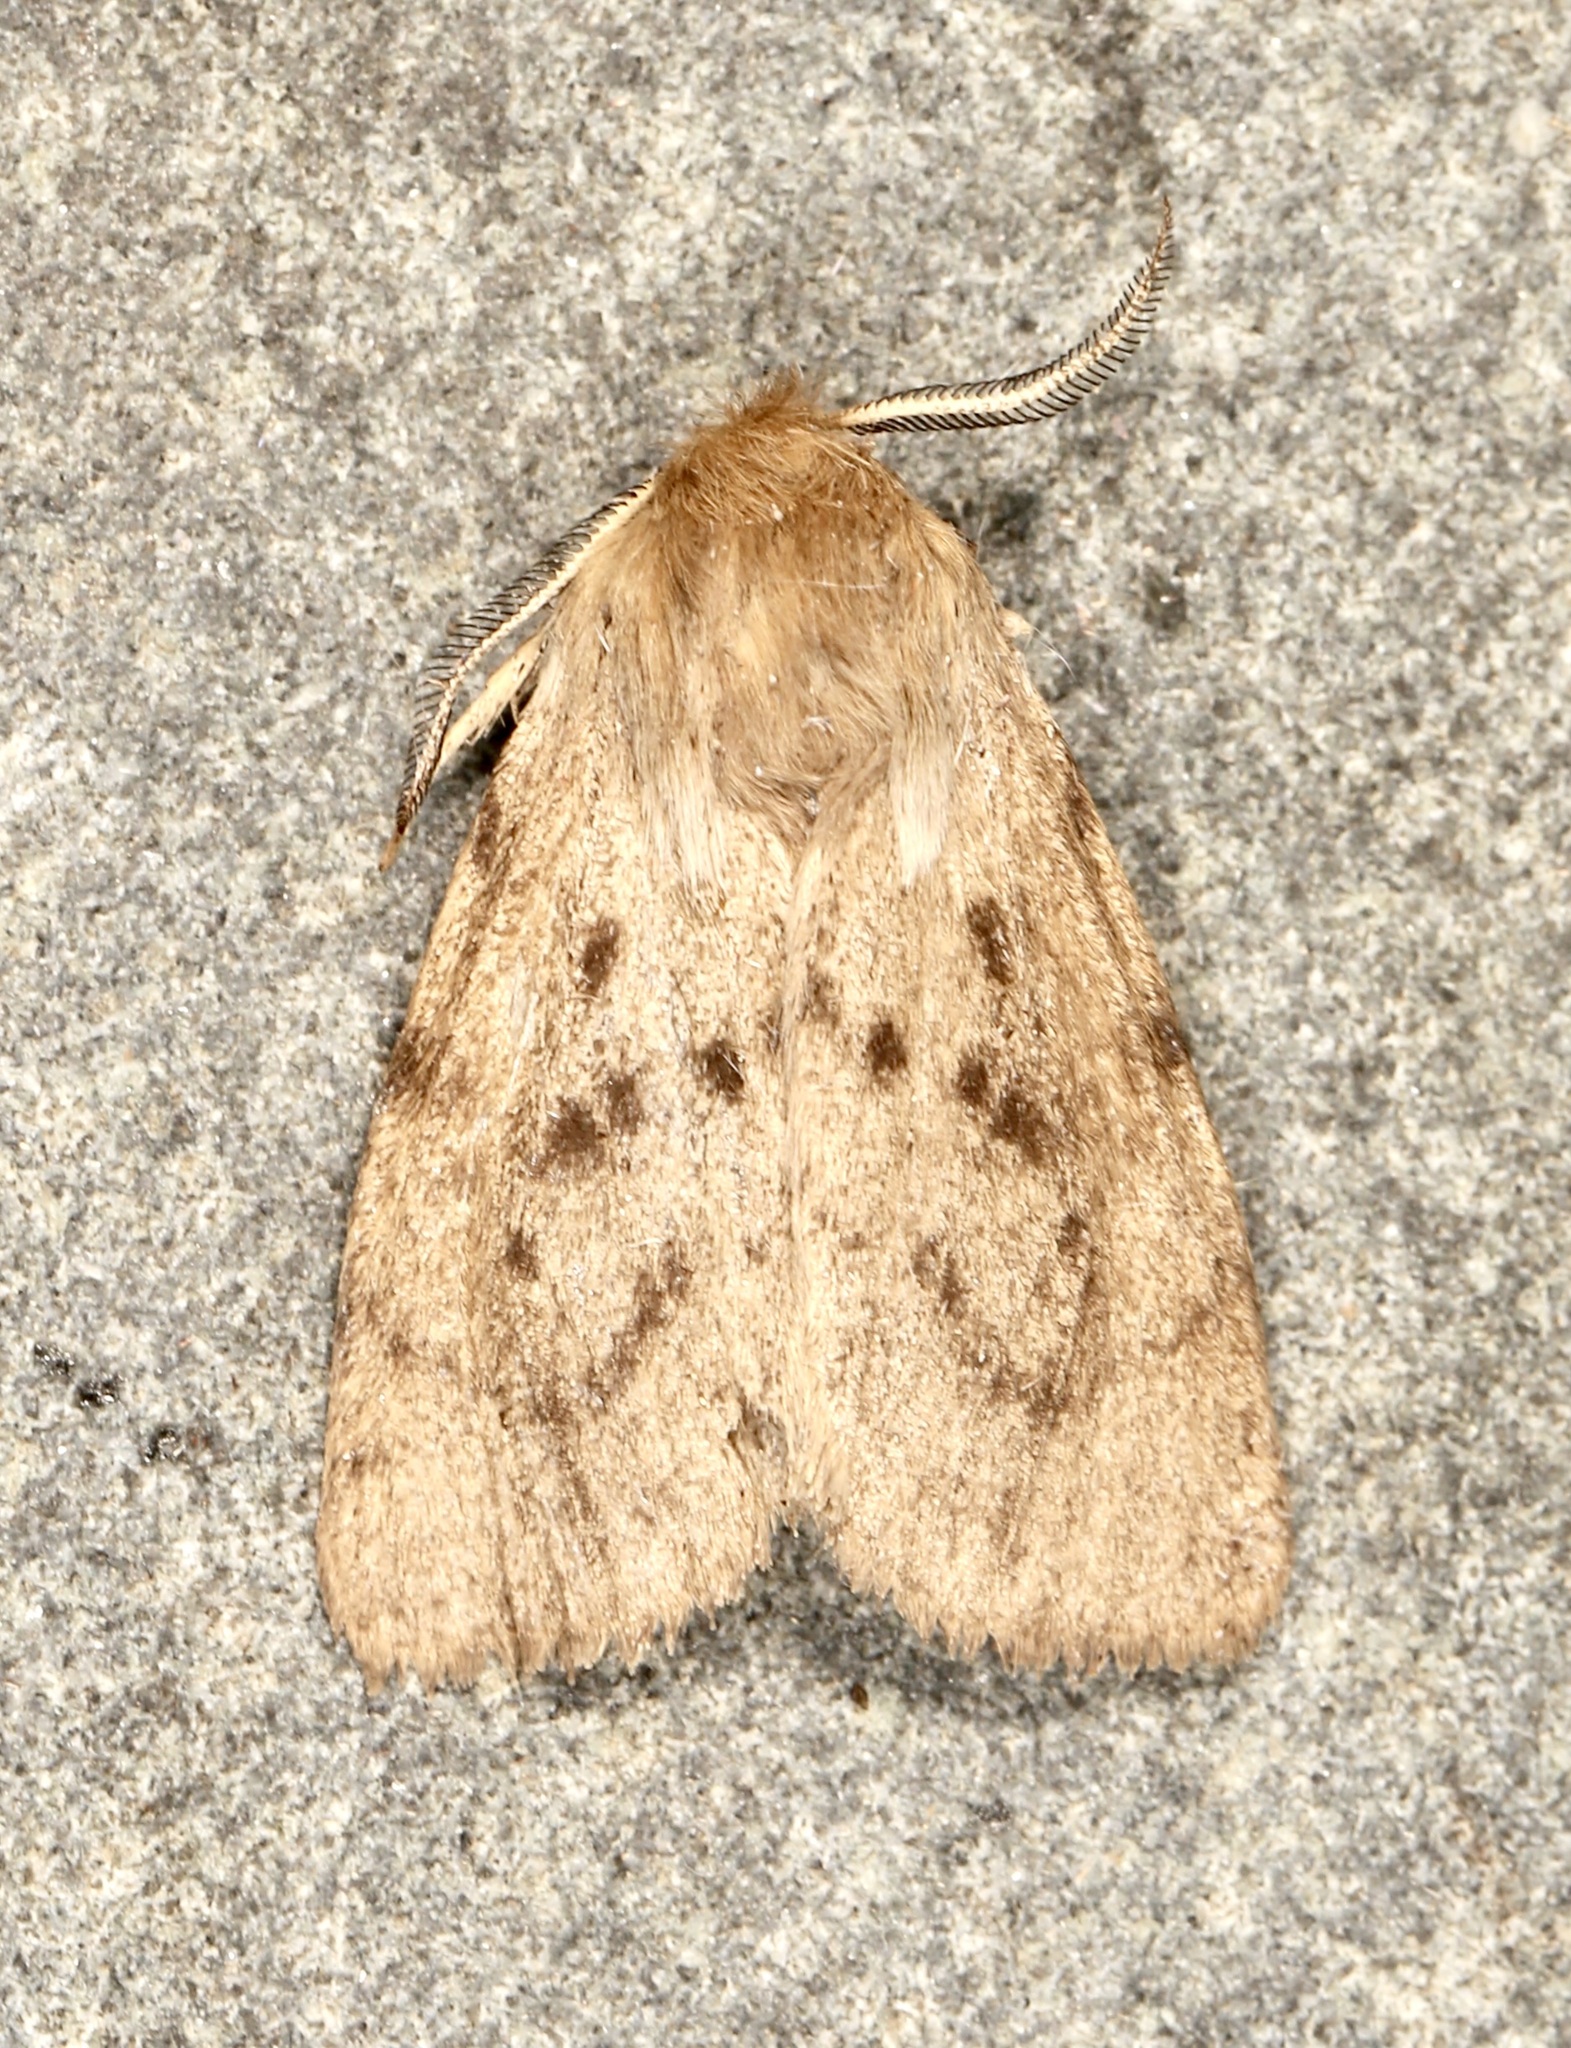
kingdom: Animalia
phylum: Arthropoda
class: Insecta
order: Lepidoptera
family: Erebidae
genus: Spilosoma
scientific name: Spilosoma vagans
